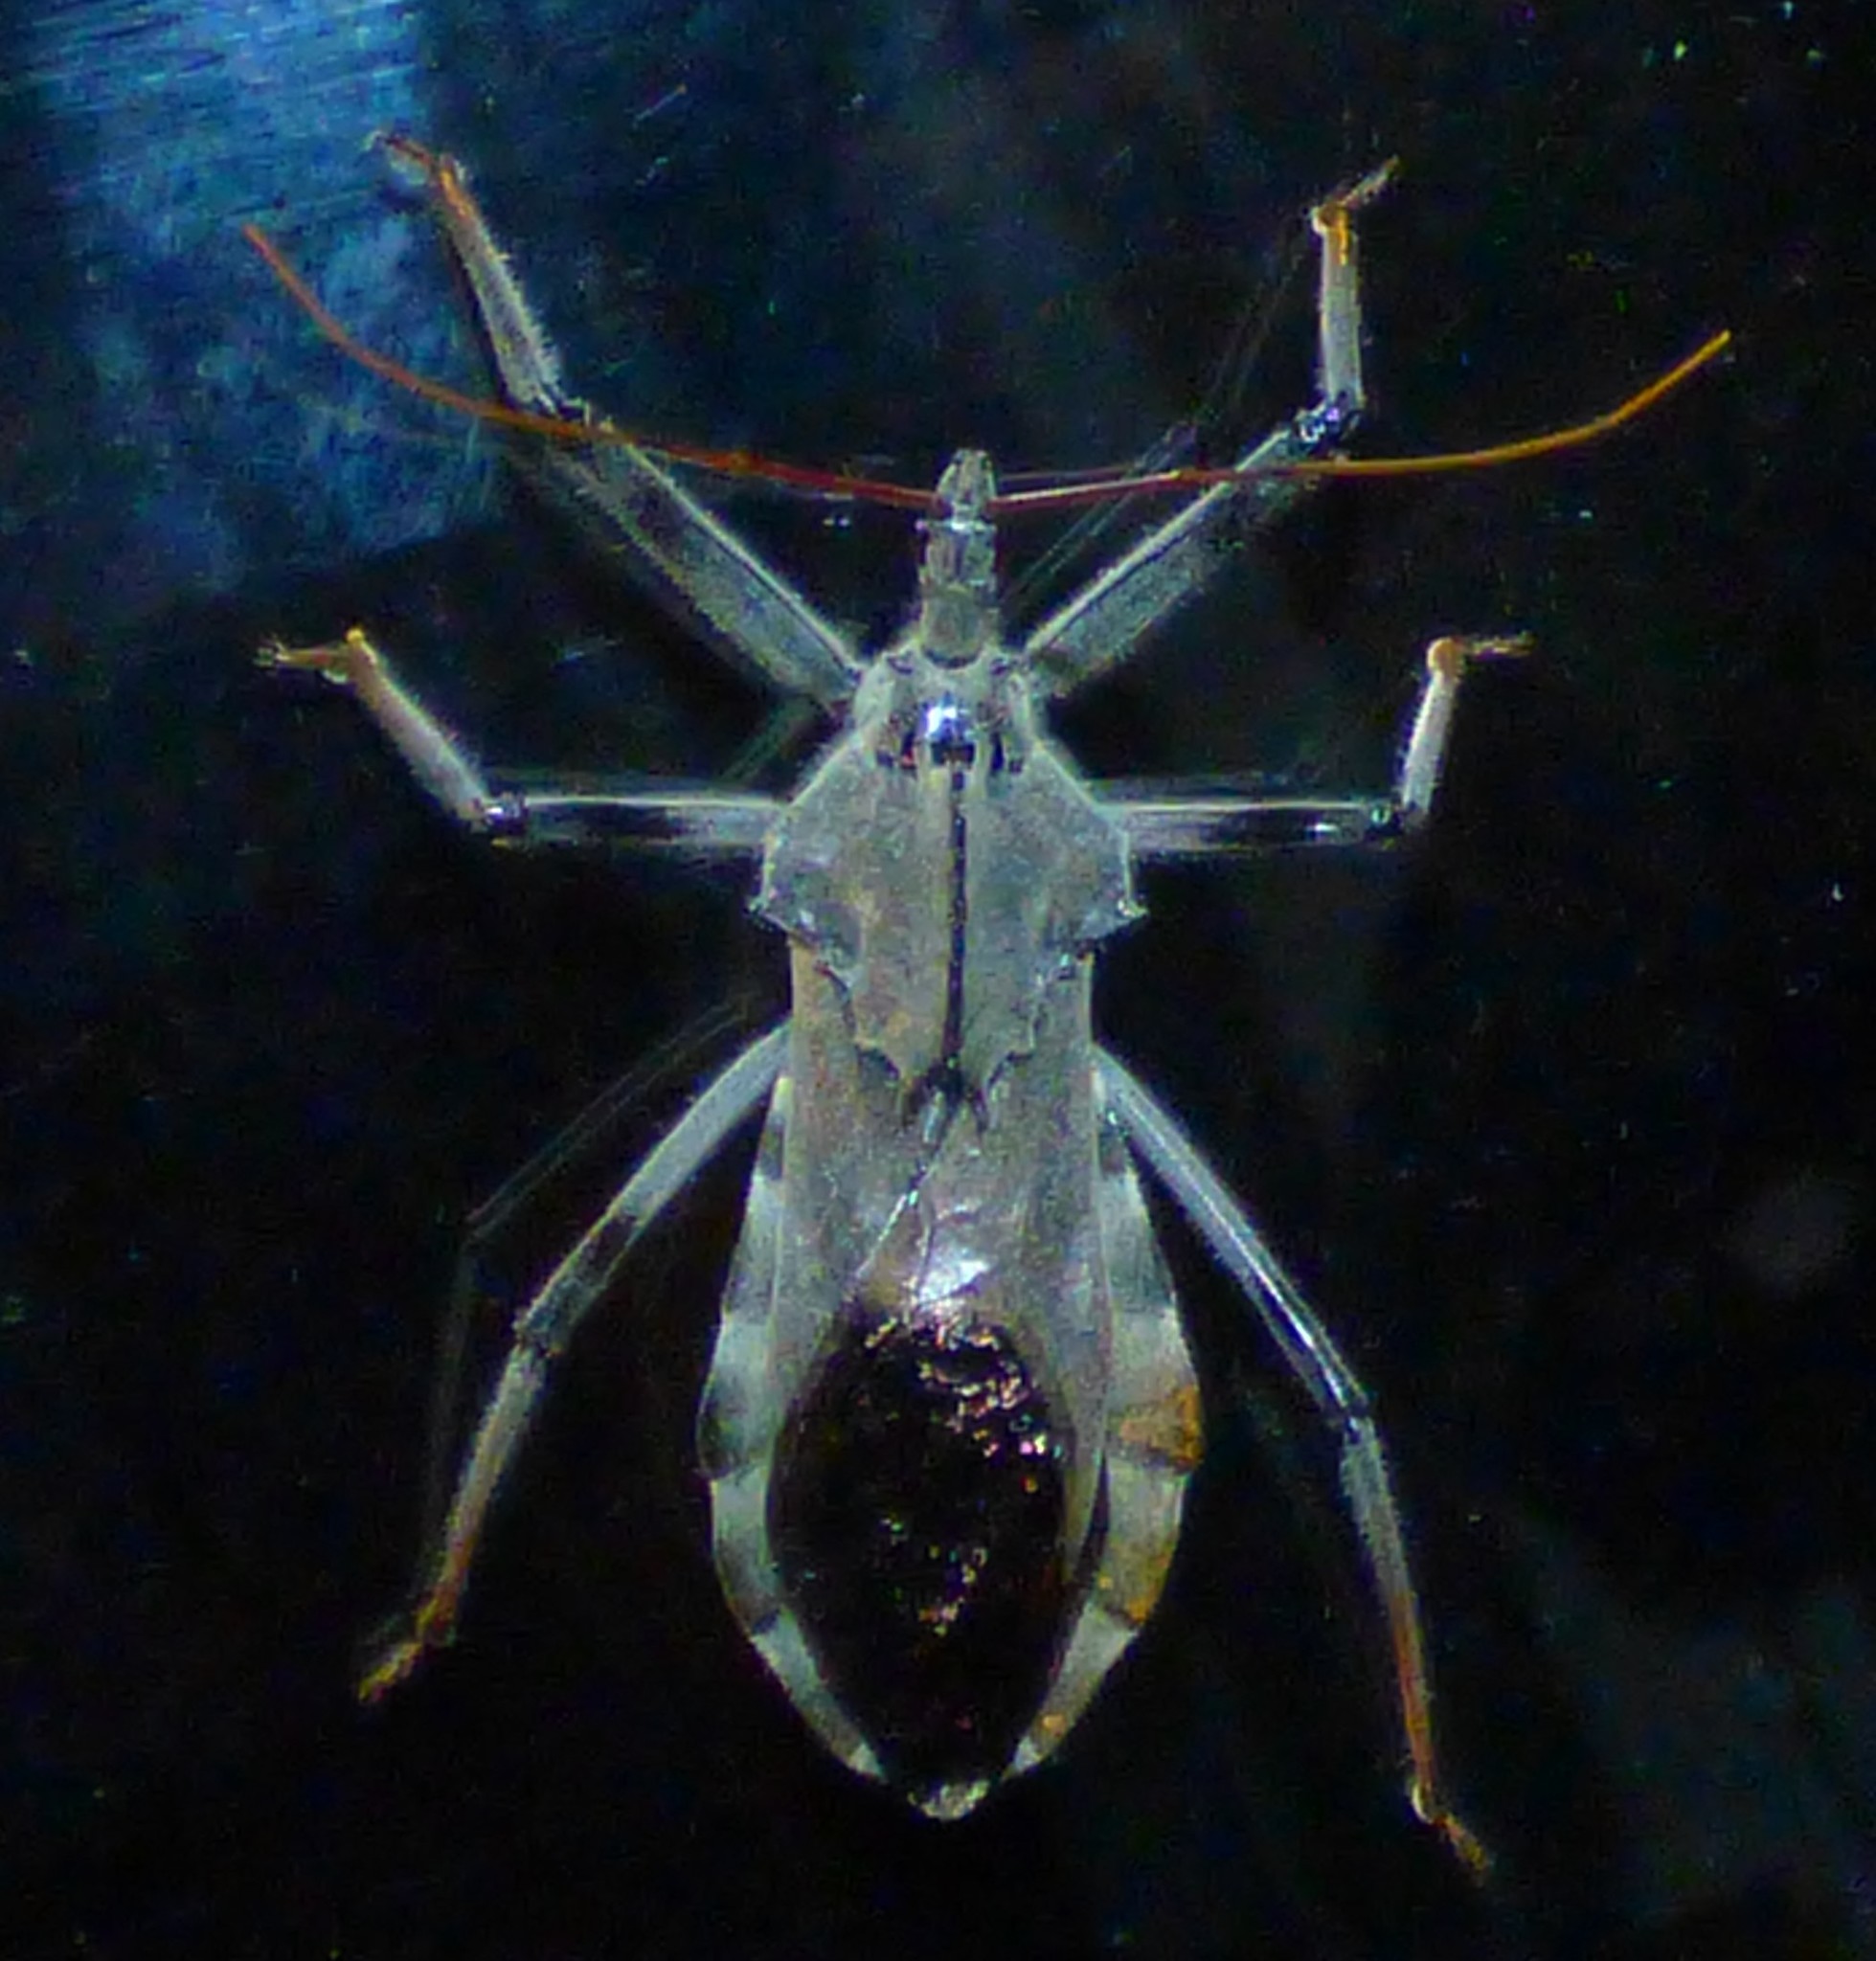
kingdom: Animalia
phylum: Arthropoda
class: Insecta
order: Hemiptera
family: Reduviidae
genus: Arilus
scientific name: Arilus cristatus
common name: North american wheel bug
